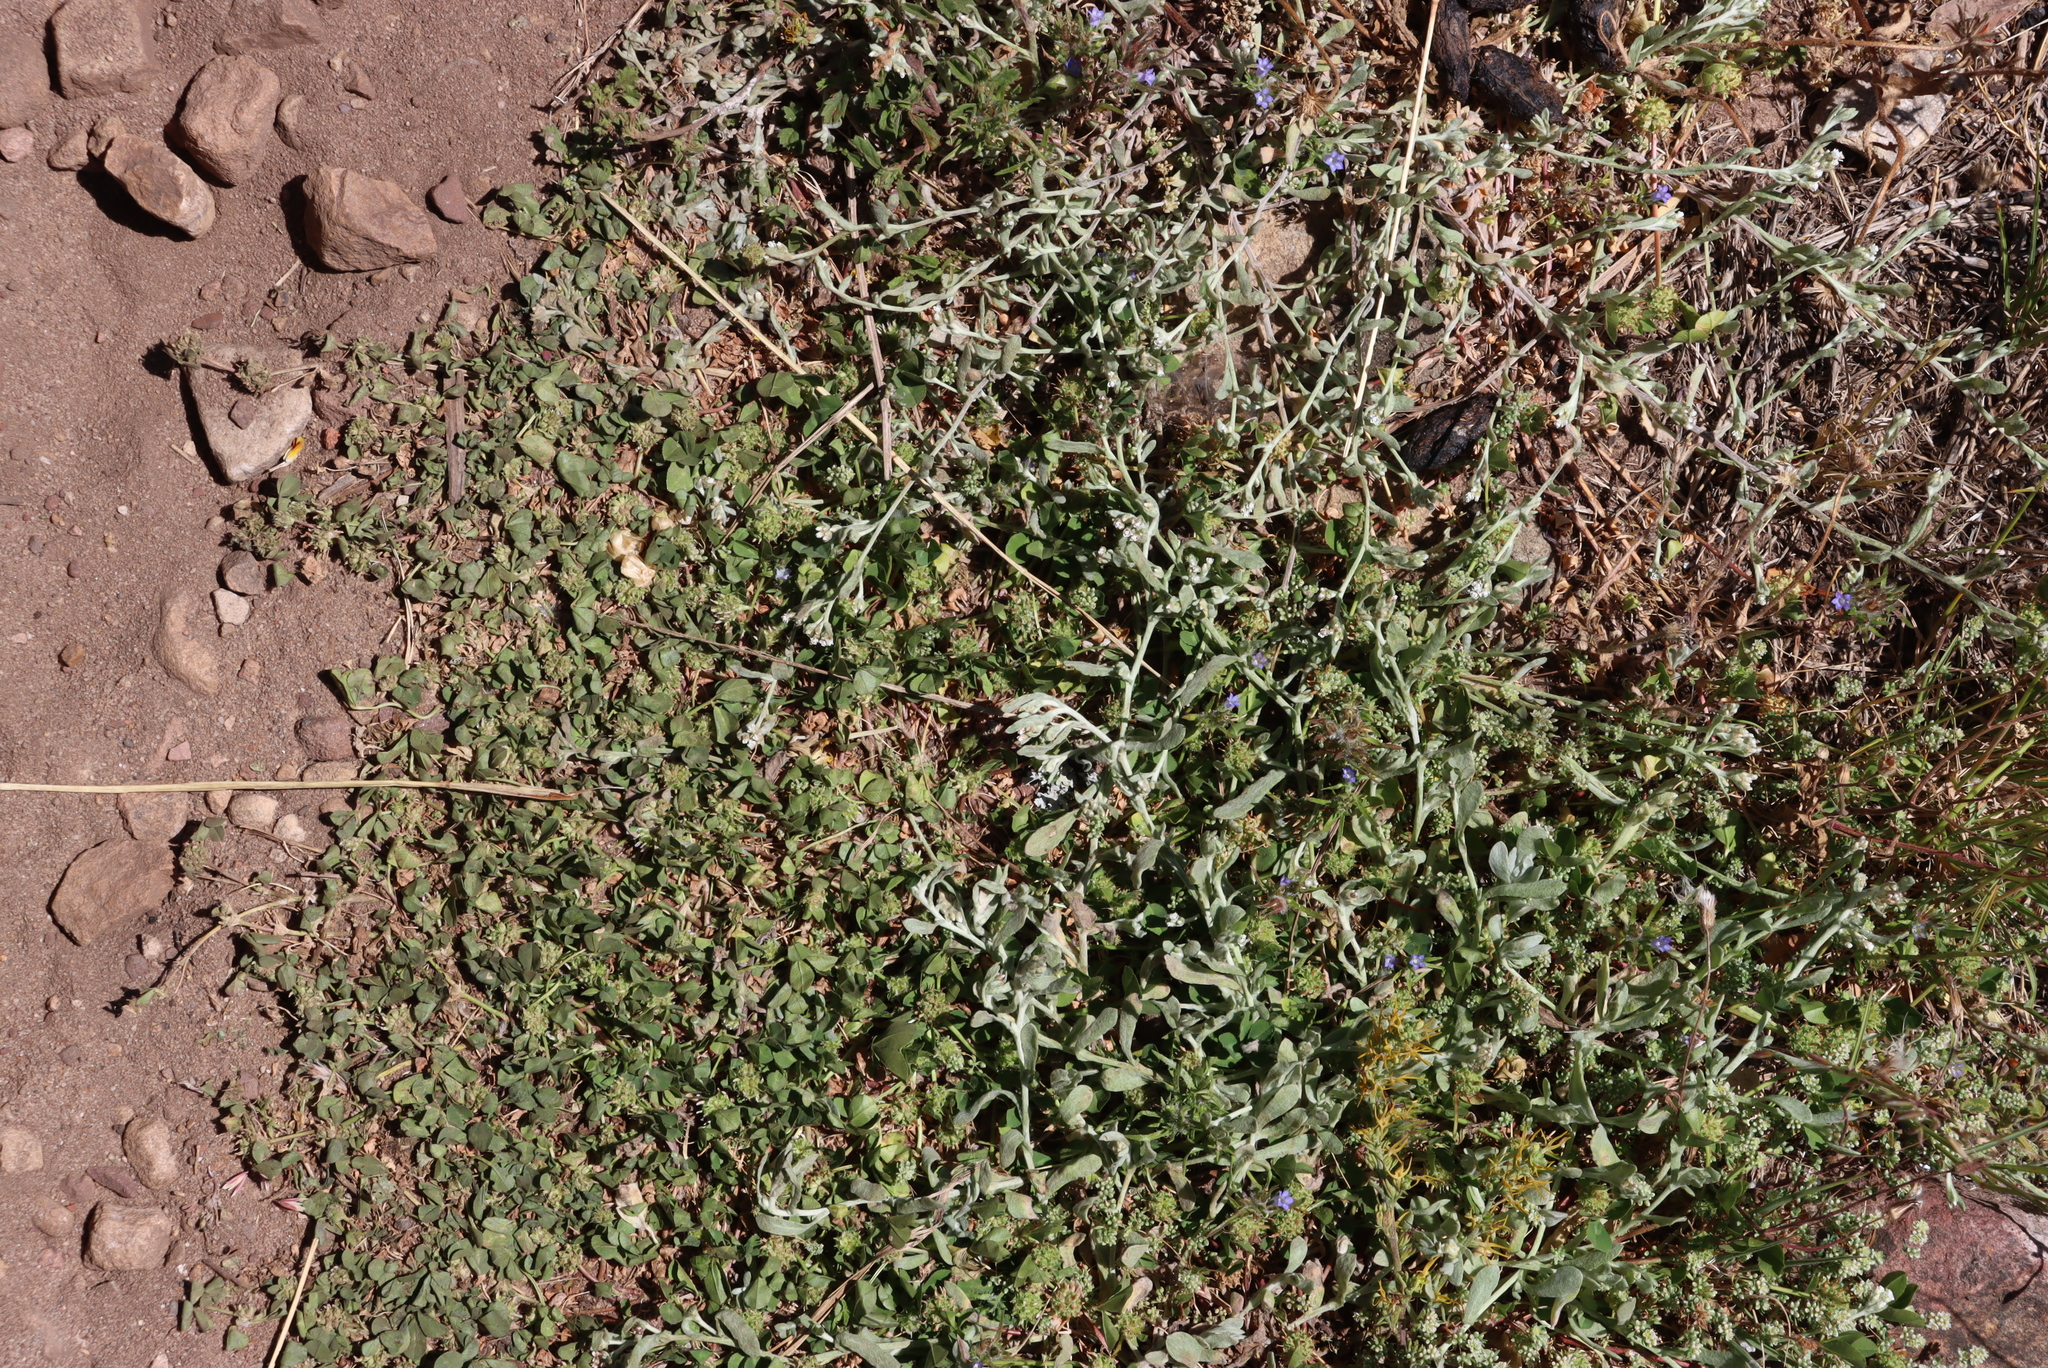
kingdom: Plantae
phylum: Tracheophyta
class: Magnoliopsida
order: Fabales
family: Fabaceae
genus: Trifolium
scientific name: Trifolium glomeratum
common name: Clustered clover
